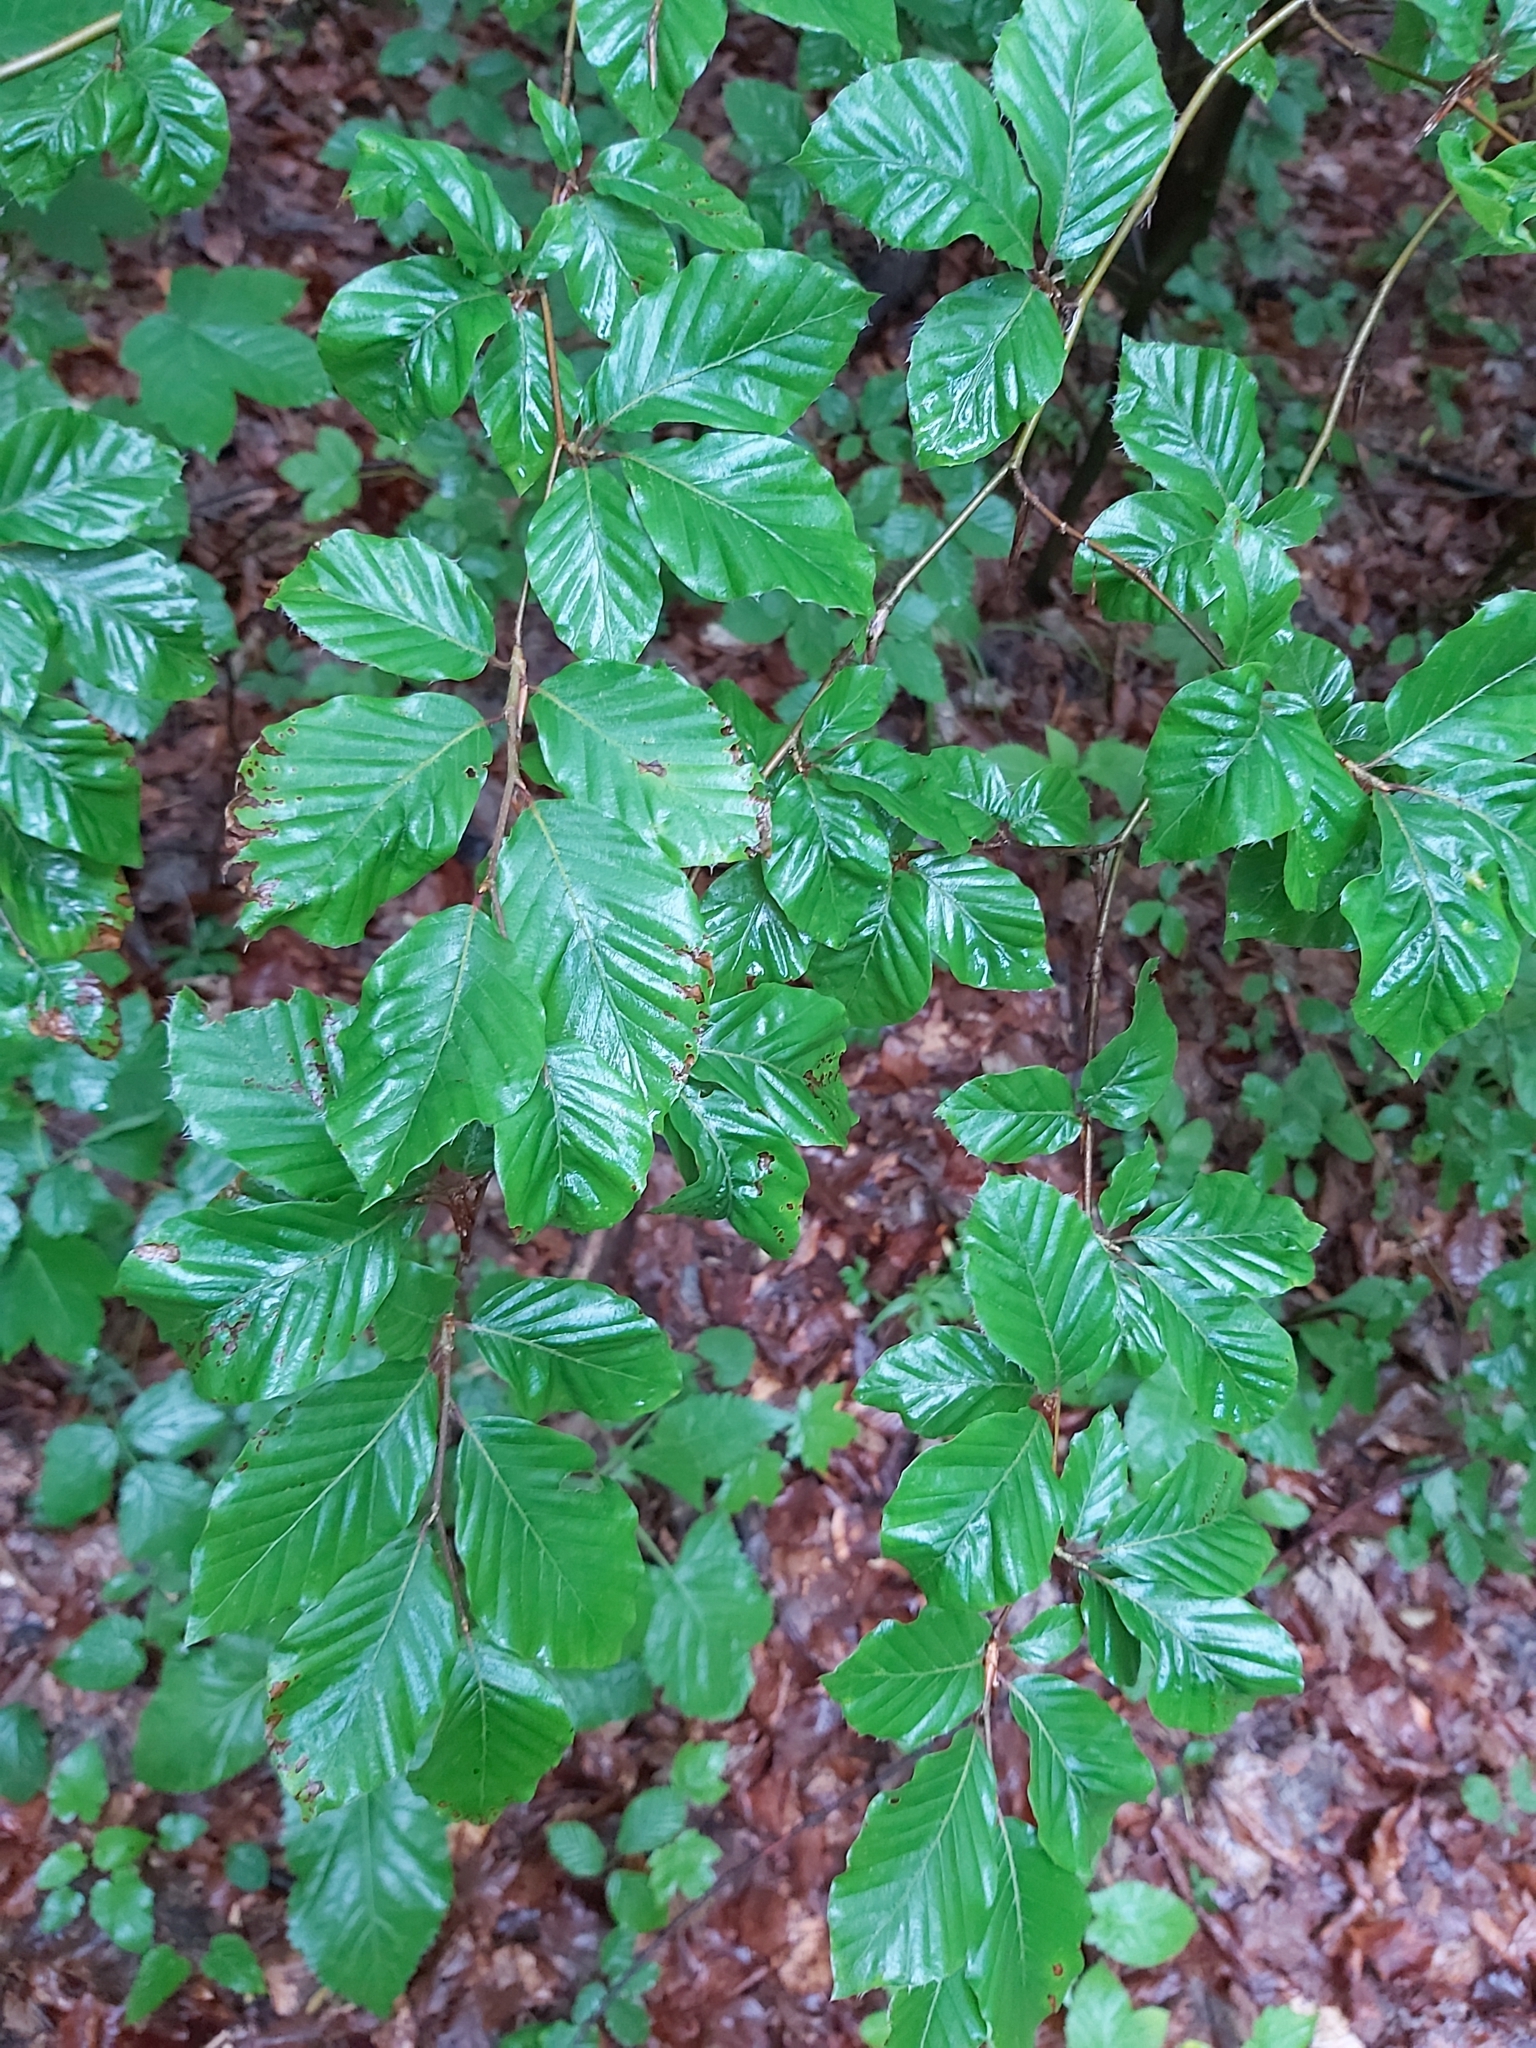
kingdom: Plantae
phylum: Tracheophyta
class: Magnoliopsida
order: Fagales
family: Fagaceae
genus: Fagus
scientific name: Fagus sylvatica
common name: Beech
